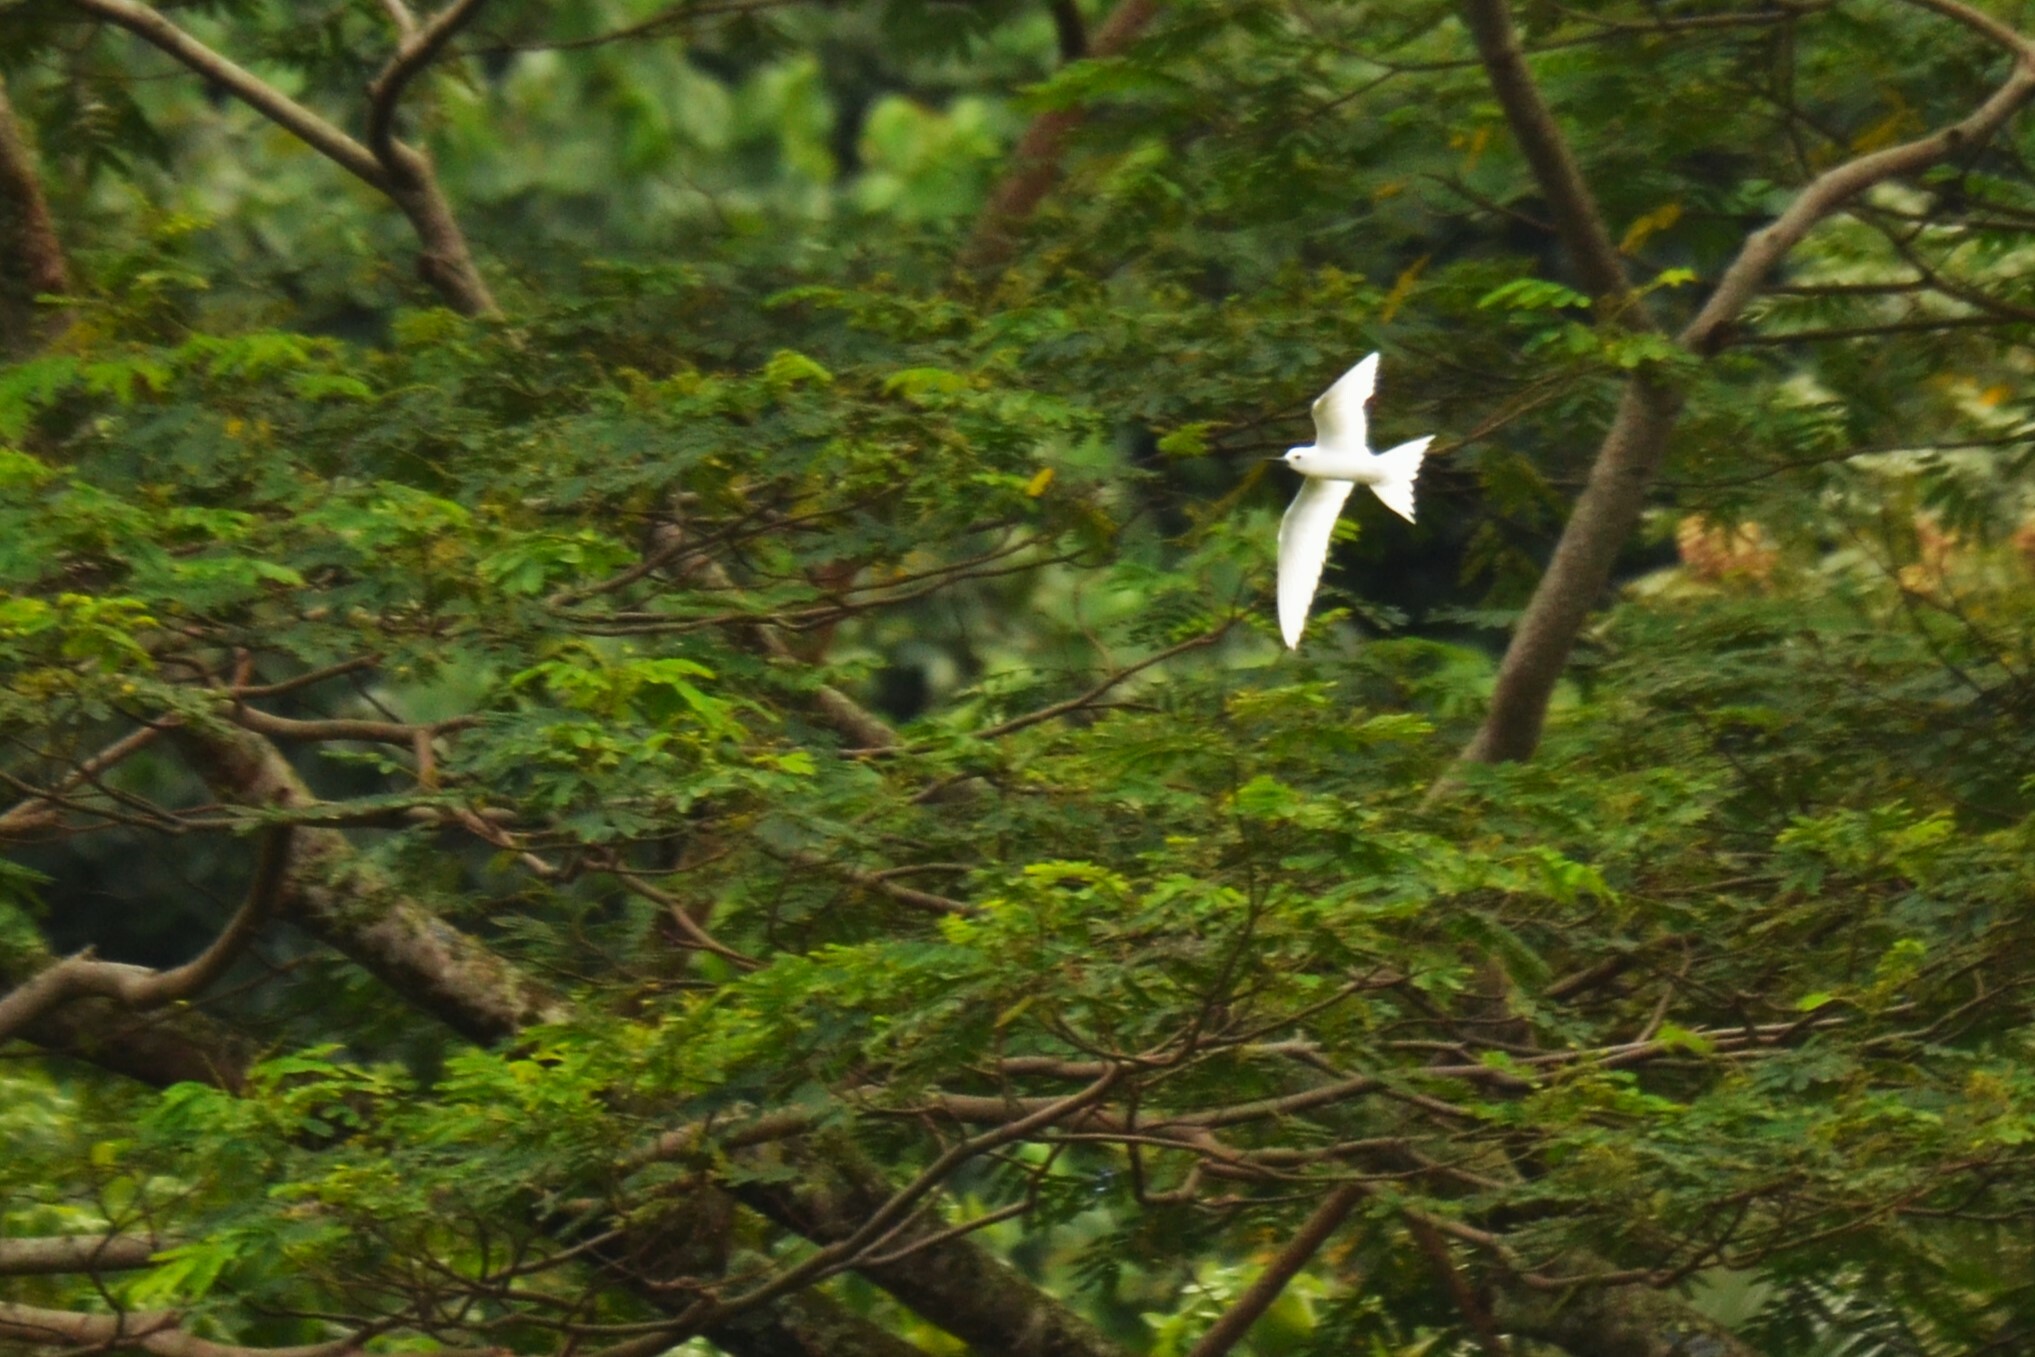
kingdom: Animalia
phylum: Chordata
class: Aves
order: Charadriiformes
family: Laridae
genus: Gygis
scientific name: Gygis alba
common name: White tern
